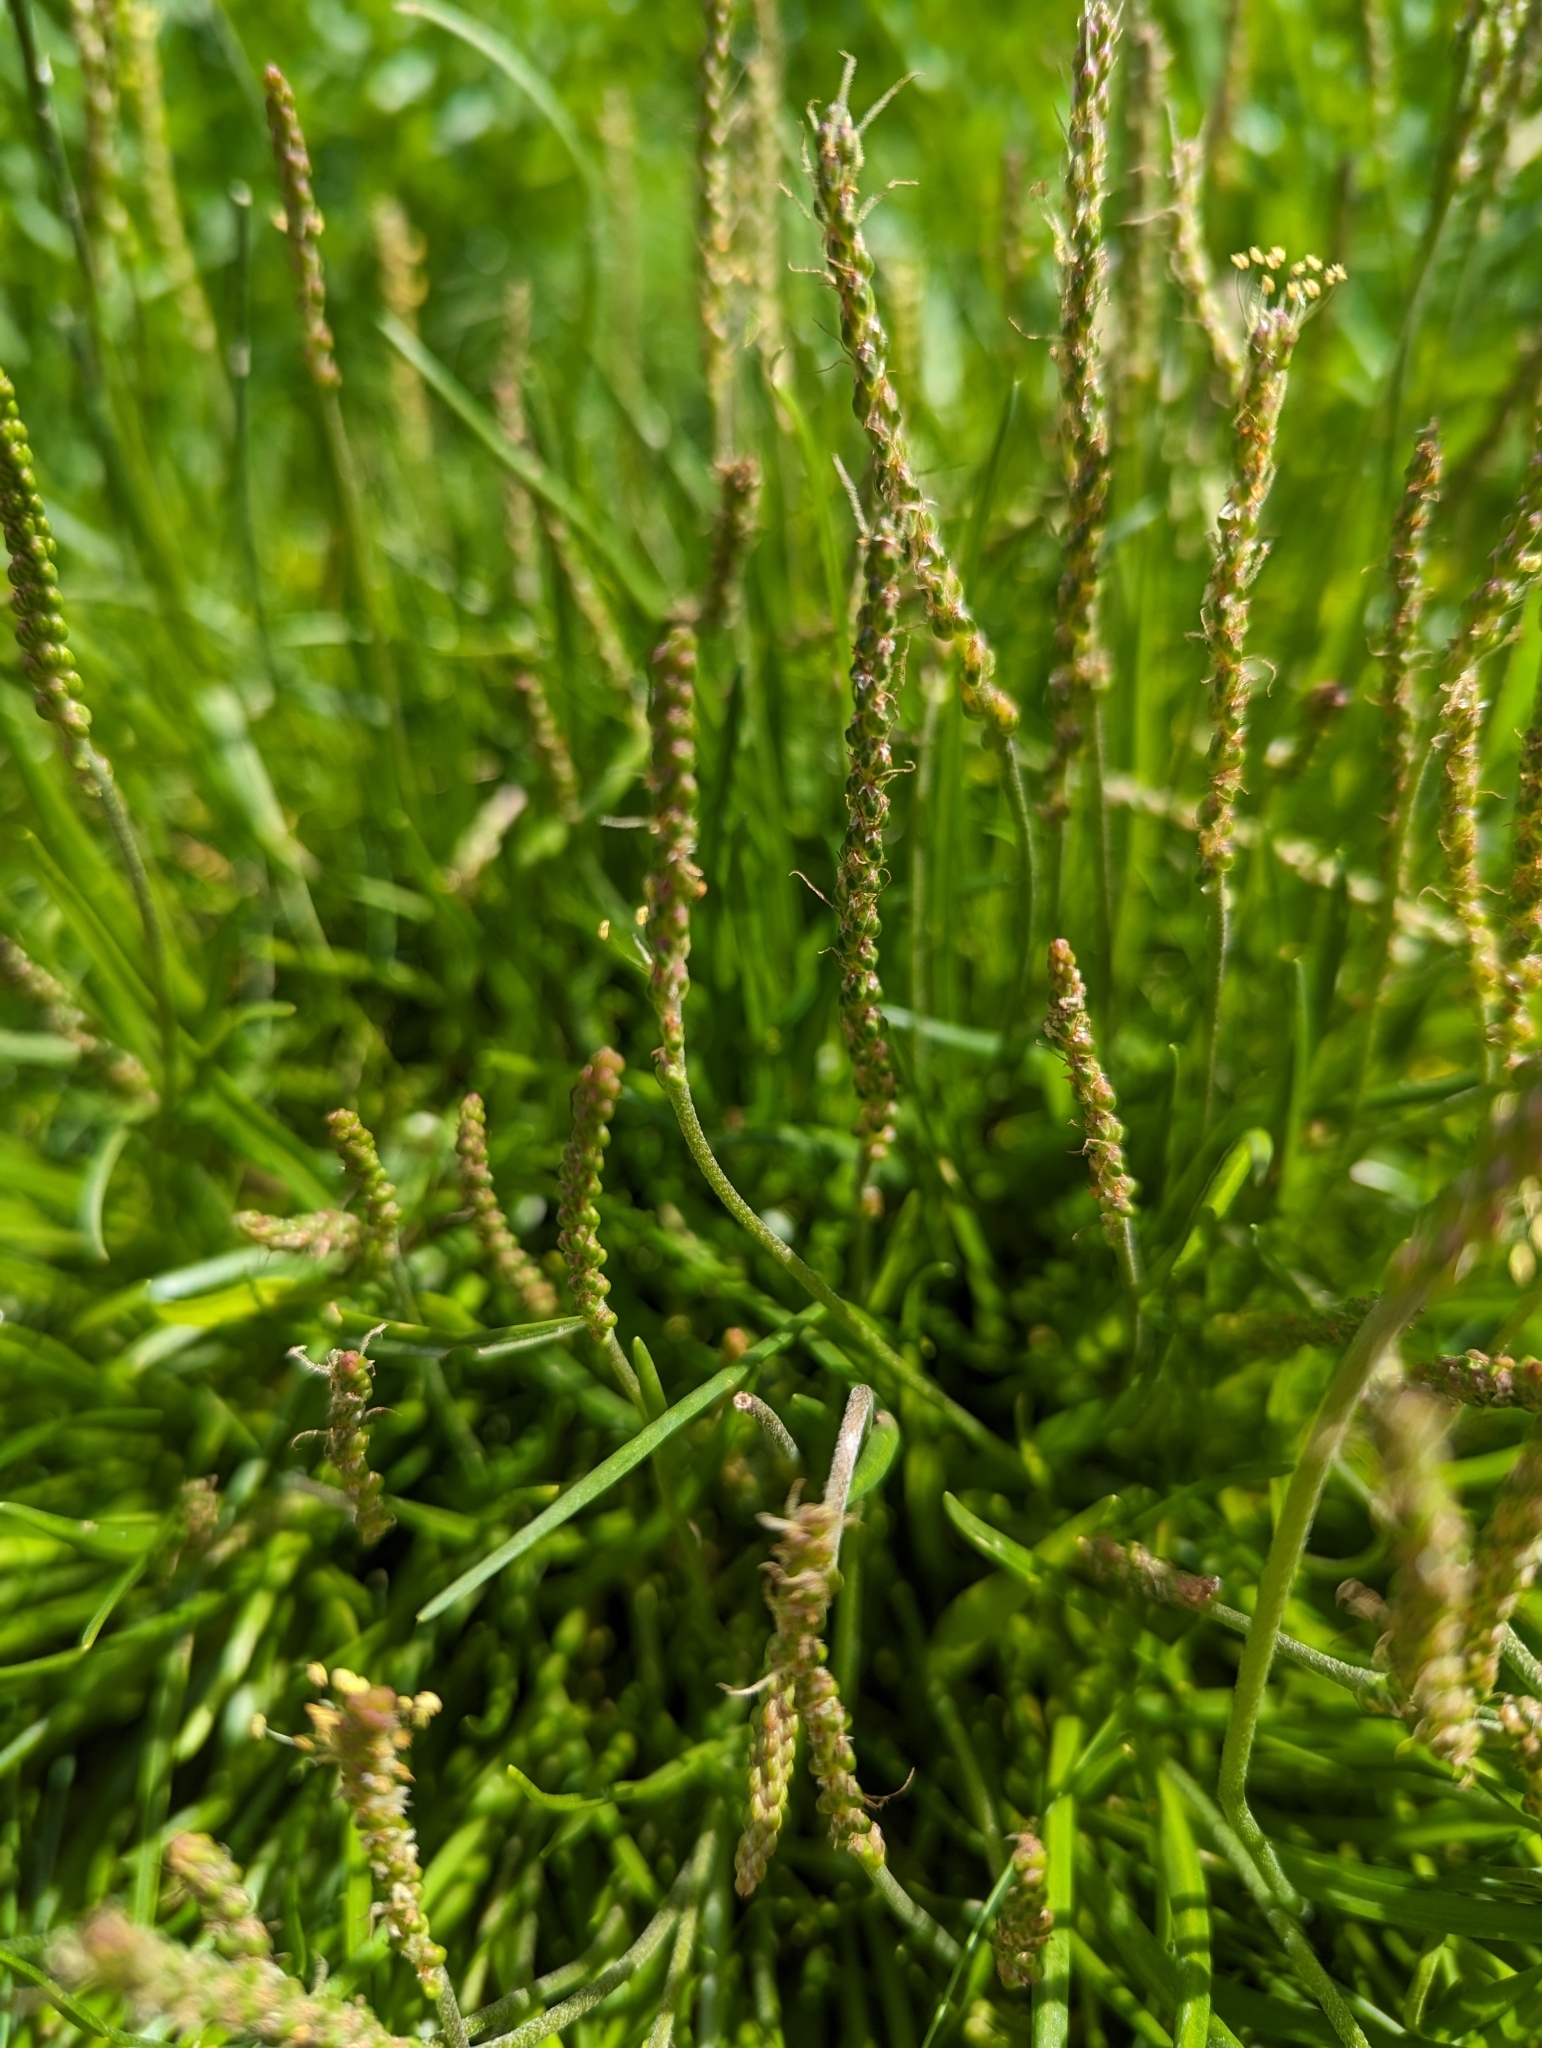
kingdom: Plantae
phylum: Tracheophyta
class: Magnoliopsida
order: Lamiales
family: Plantaginaceae
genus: Plantago
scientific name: Plantago maritima
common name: Sea plantain
